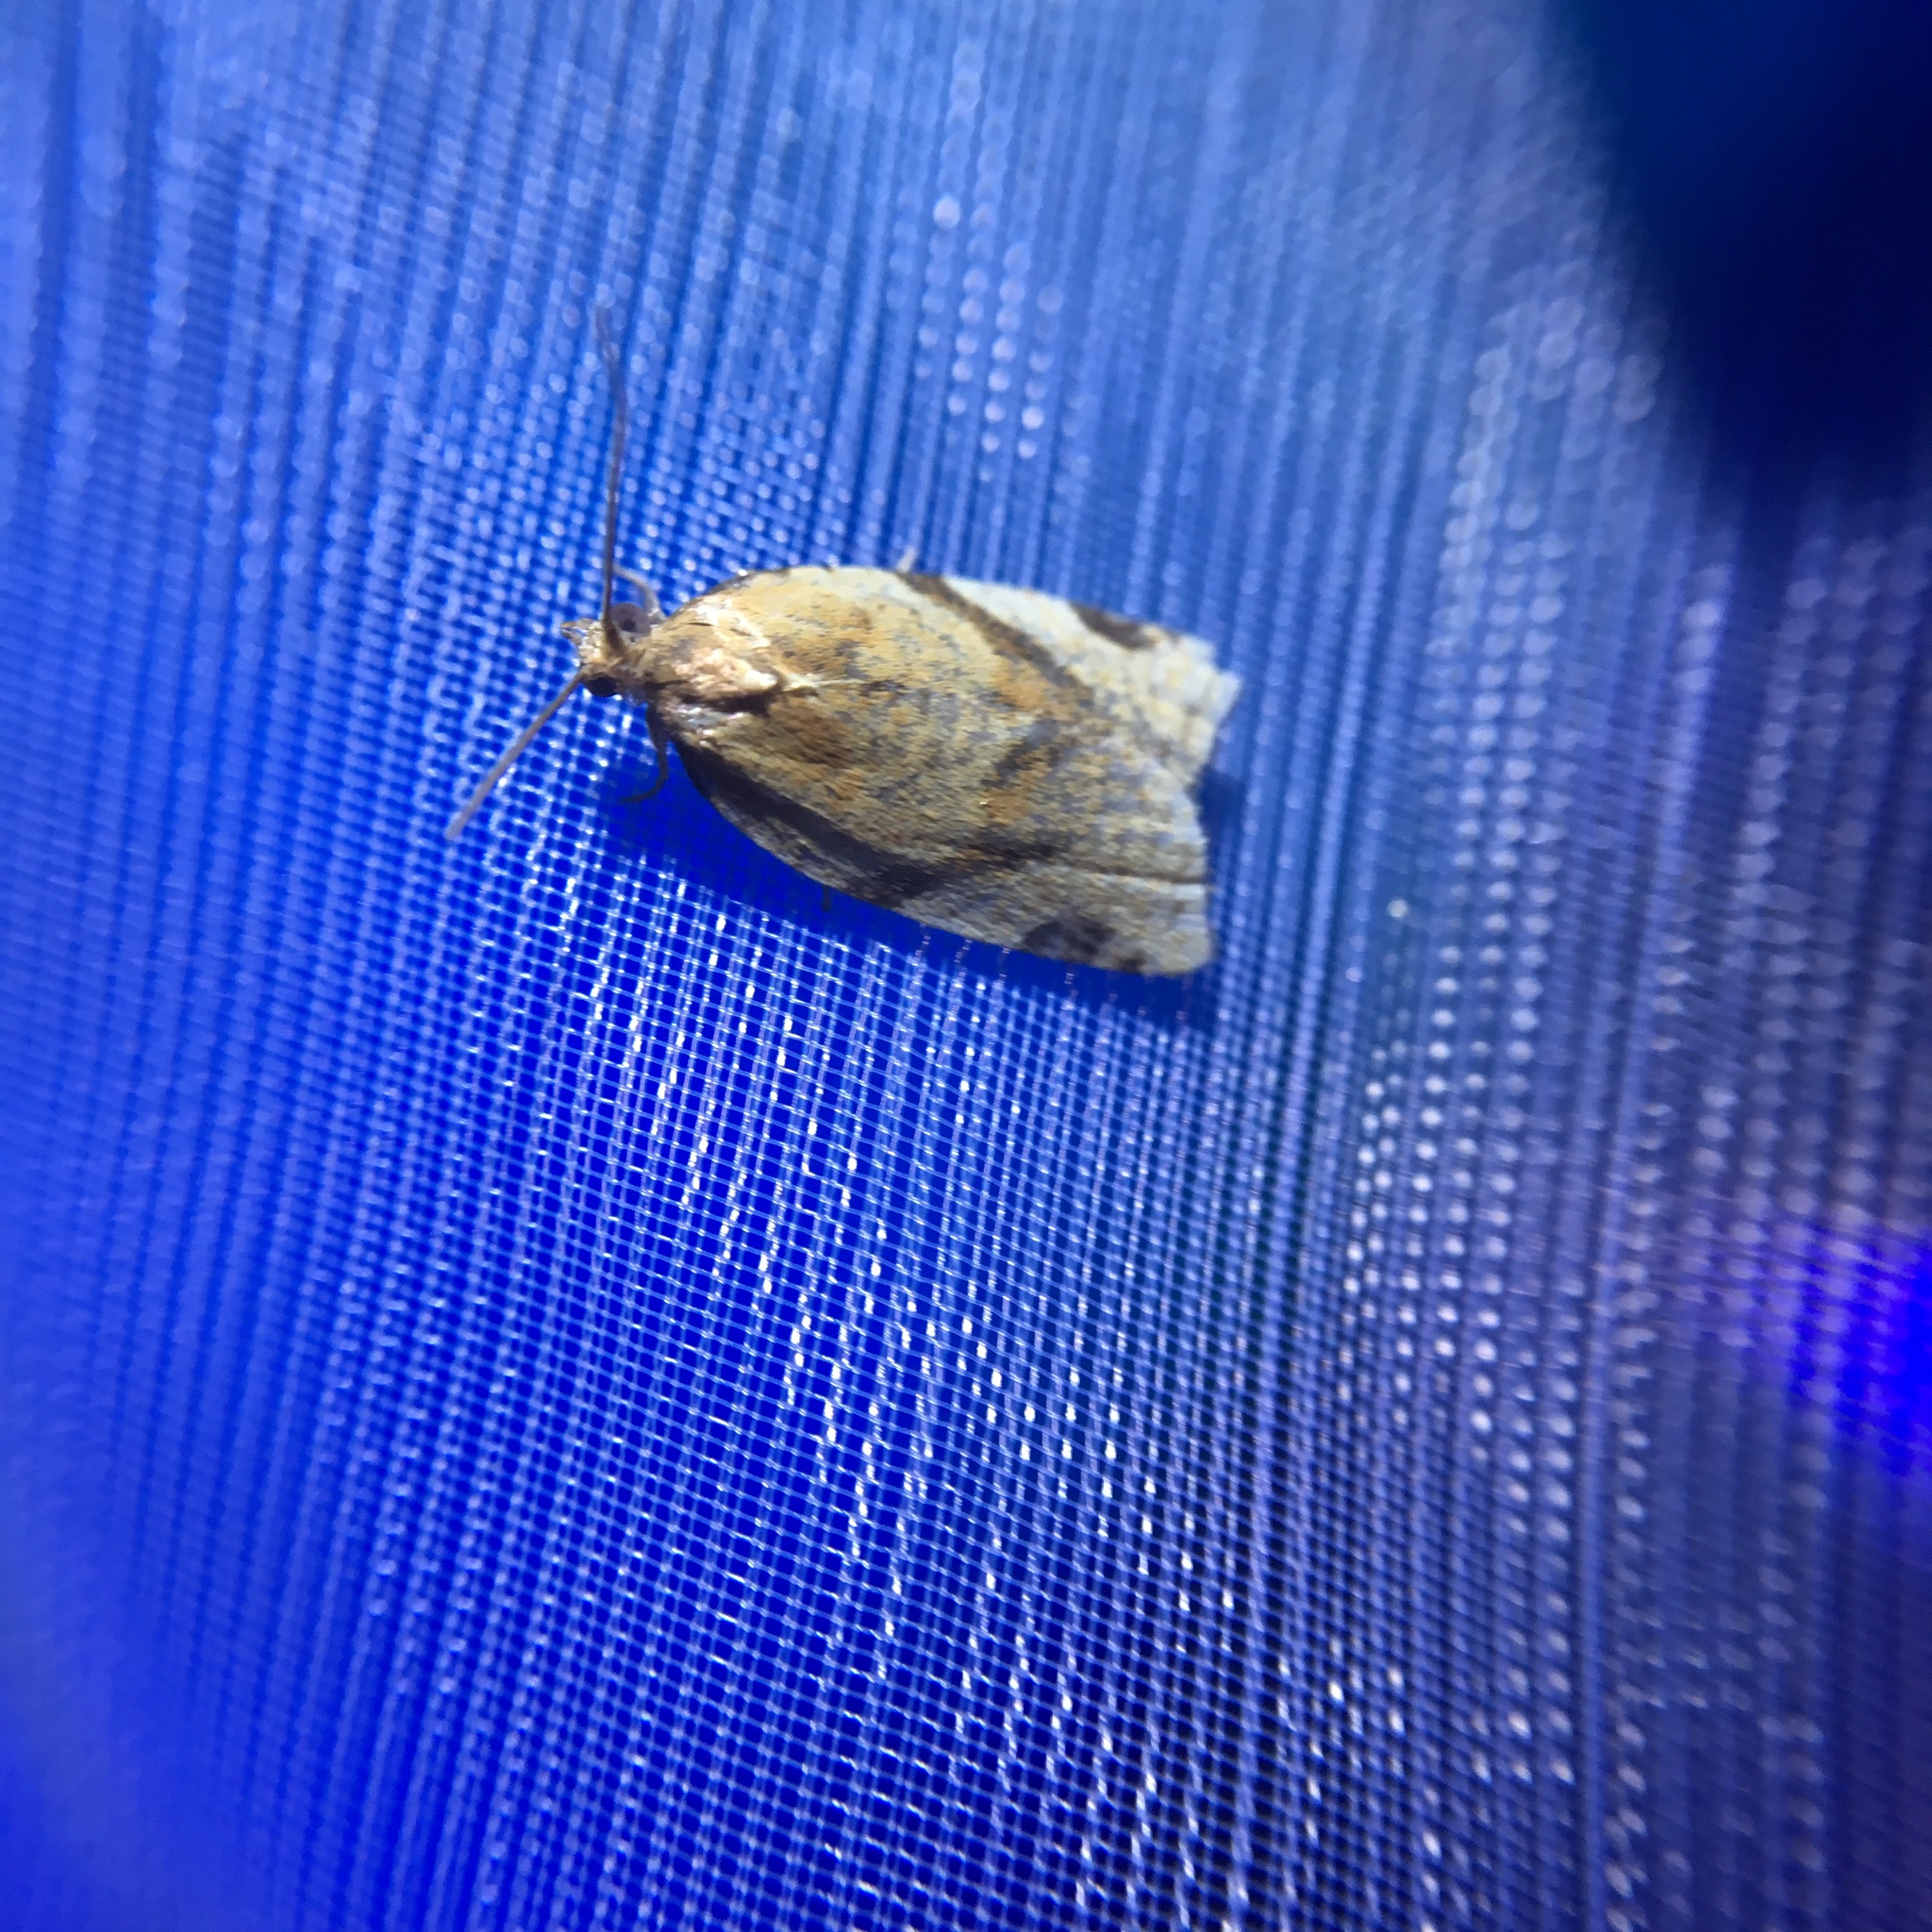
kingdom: Animalia
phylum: Arthropoda
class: Insecta
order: Lepidoptera
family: Tortricidae
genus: Clepsis
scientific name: Clepsis spectrana
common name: Cyclamen tortrix
